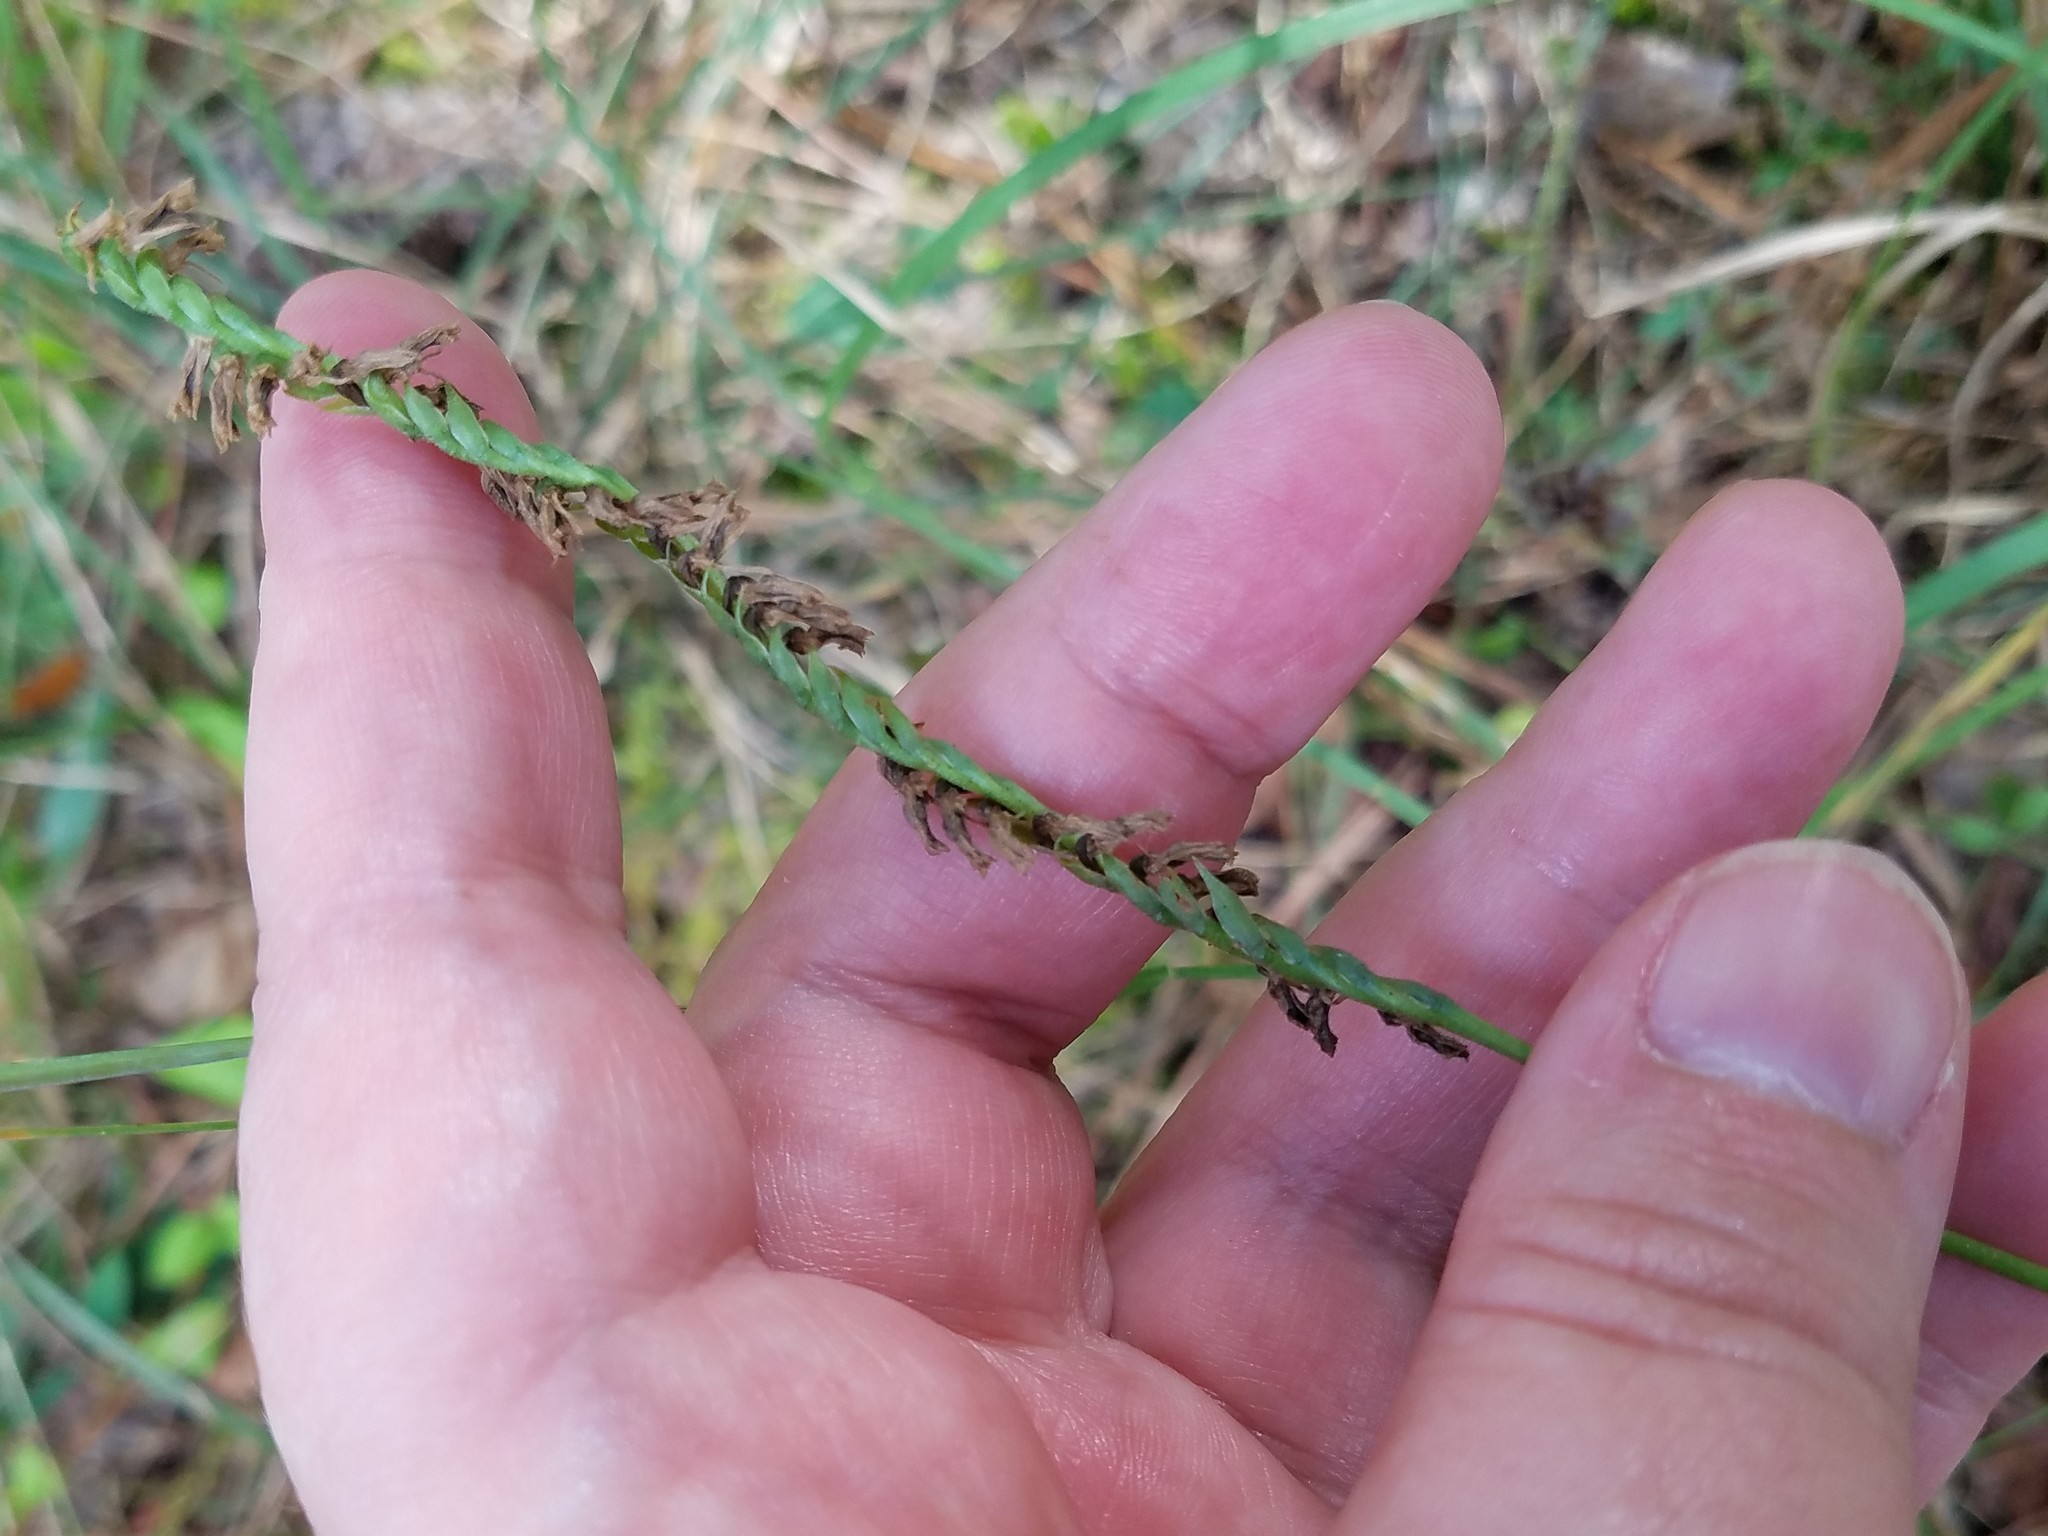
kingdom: Plantae
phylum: Tracheophyta
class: Liliopsida
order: Asparagales
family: Orchidaceae
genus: Spiranthes
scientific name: Spiranthes lacera
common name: Northern slender ladies'-tresses
